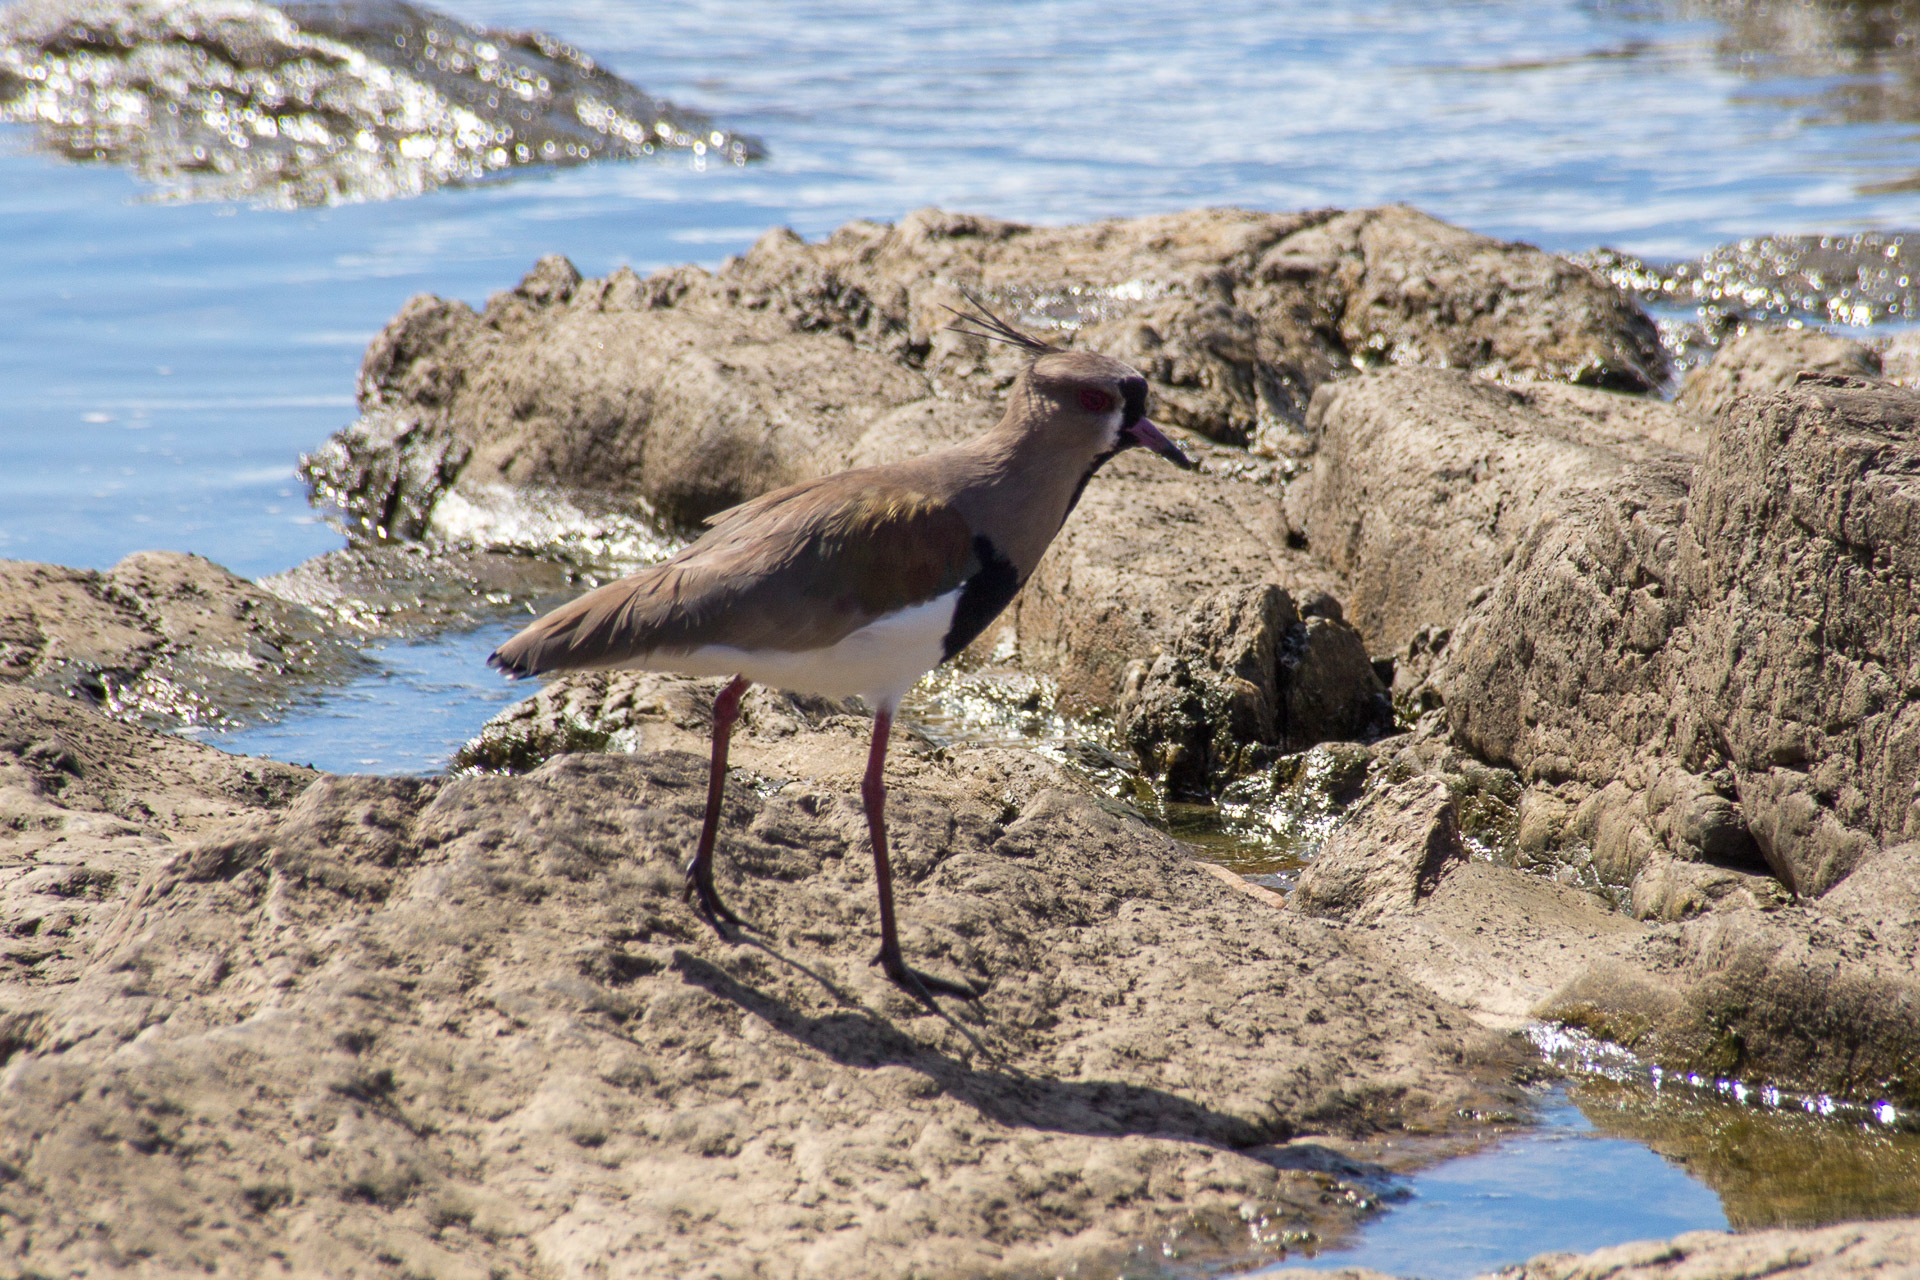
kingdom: Animalia
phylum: Chordata
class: Aves
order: Charadriiformes
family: Charadriidae
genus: Vanellus
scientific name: Vanellus chilensis
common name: Southern lapwing
